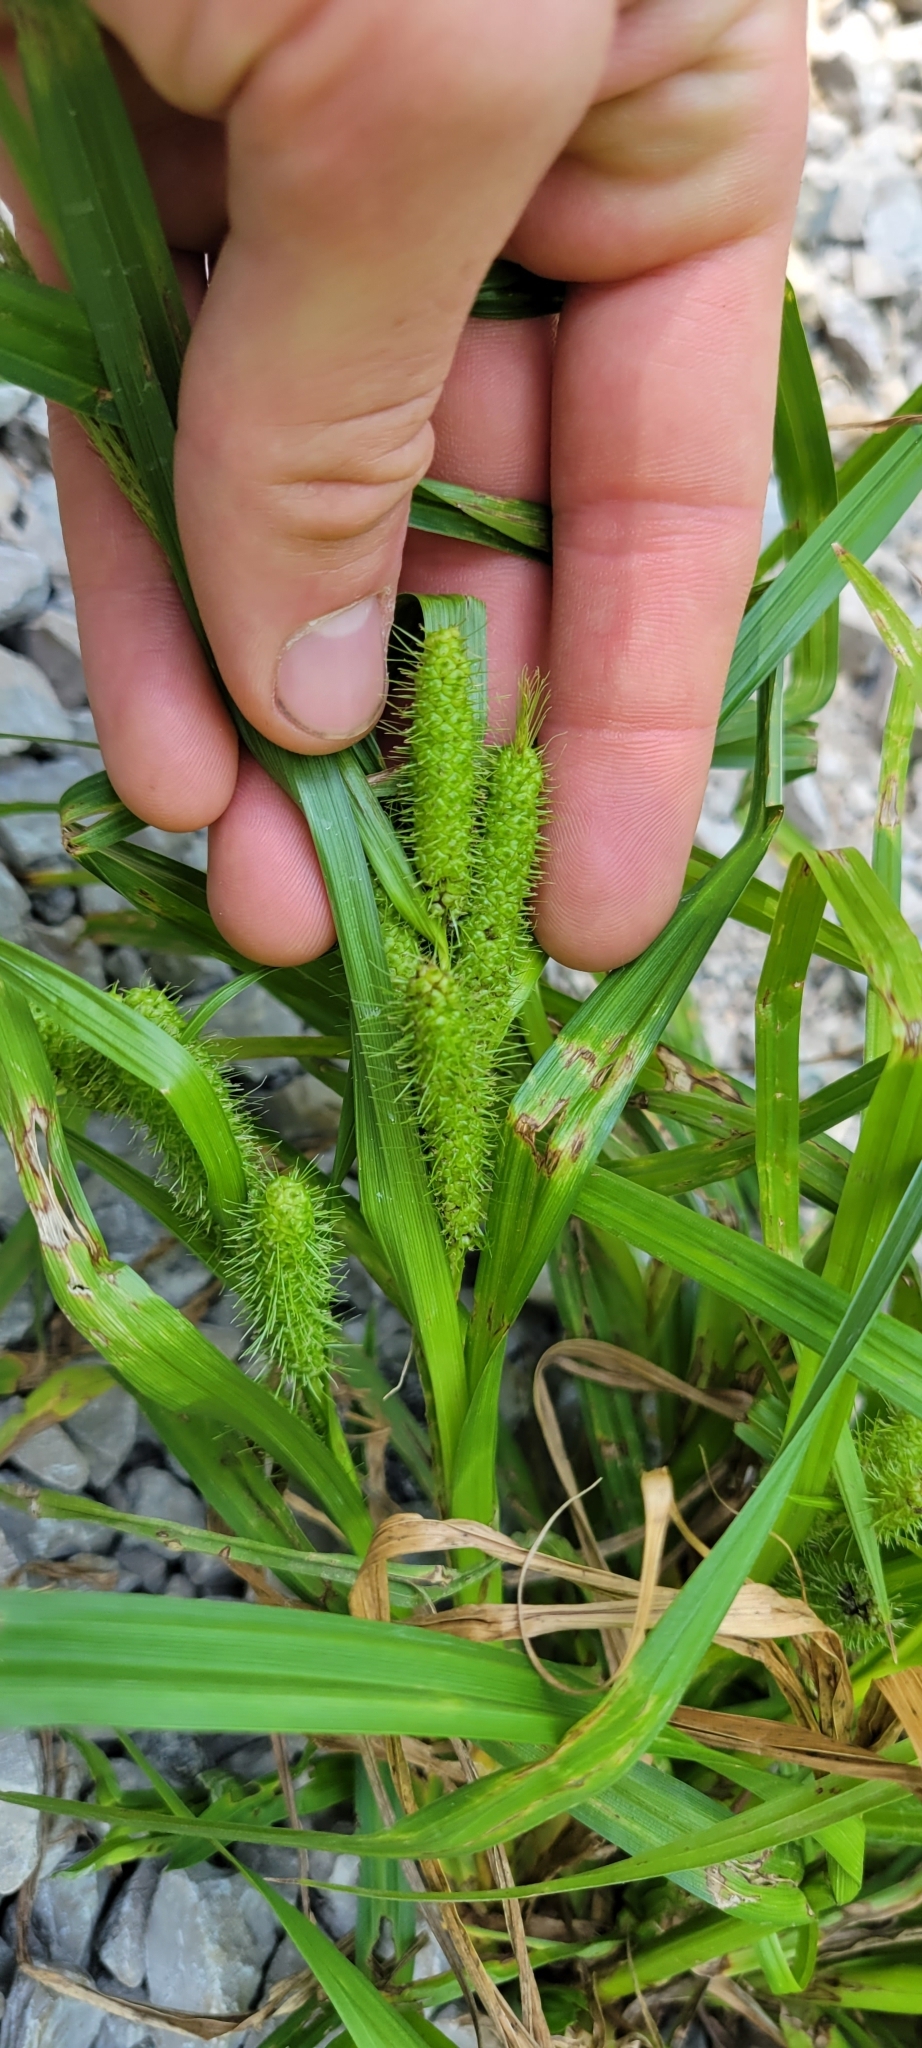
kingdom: Plantae
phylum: Tracheophyta
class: Liliopsida
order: Poales
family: Cyperaceae
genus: Carex
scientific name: Carex frankii
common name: Frank's sedge
